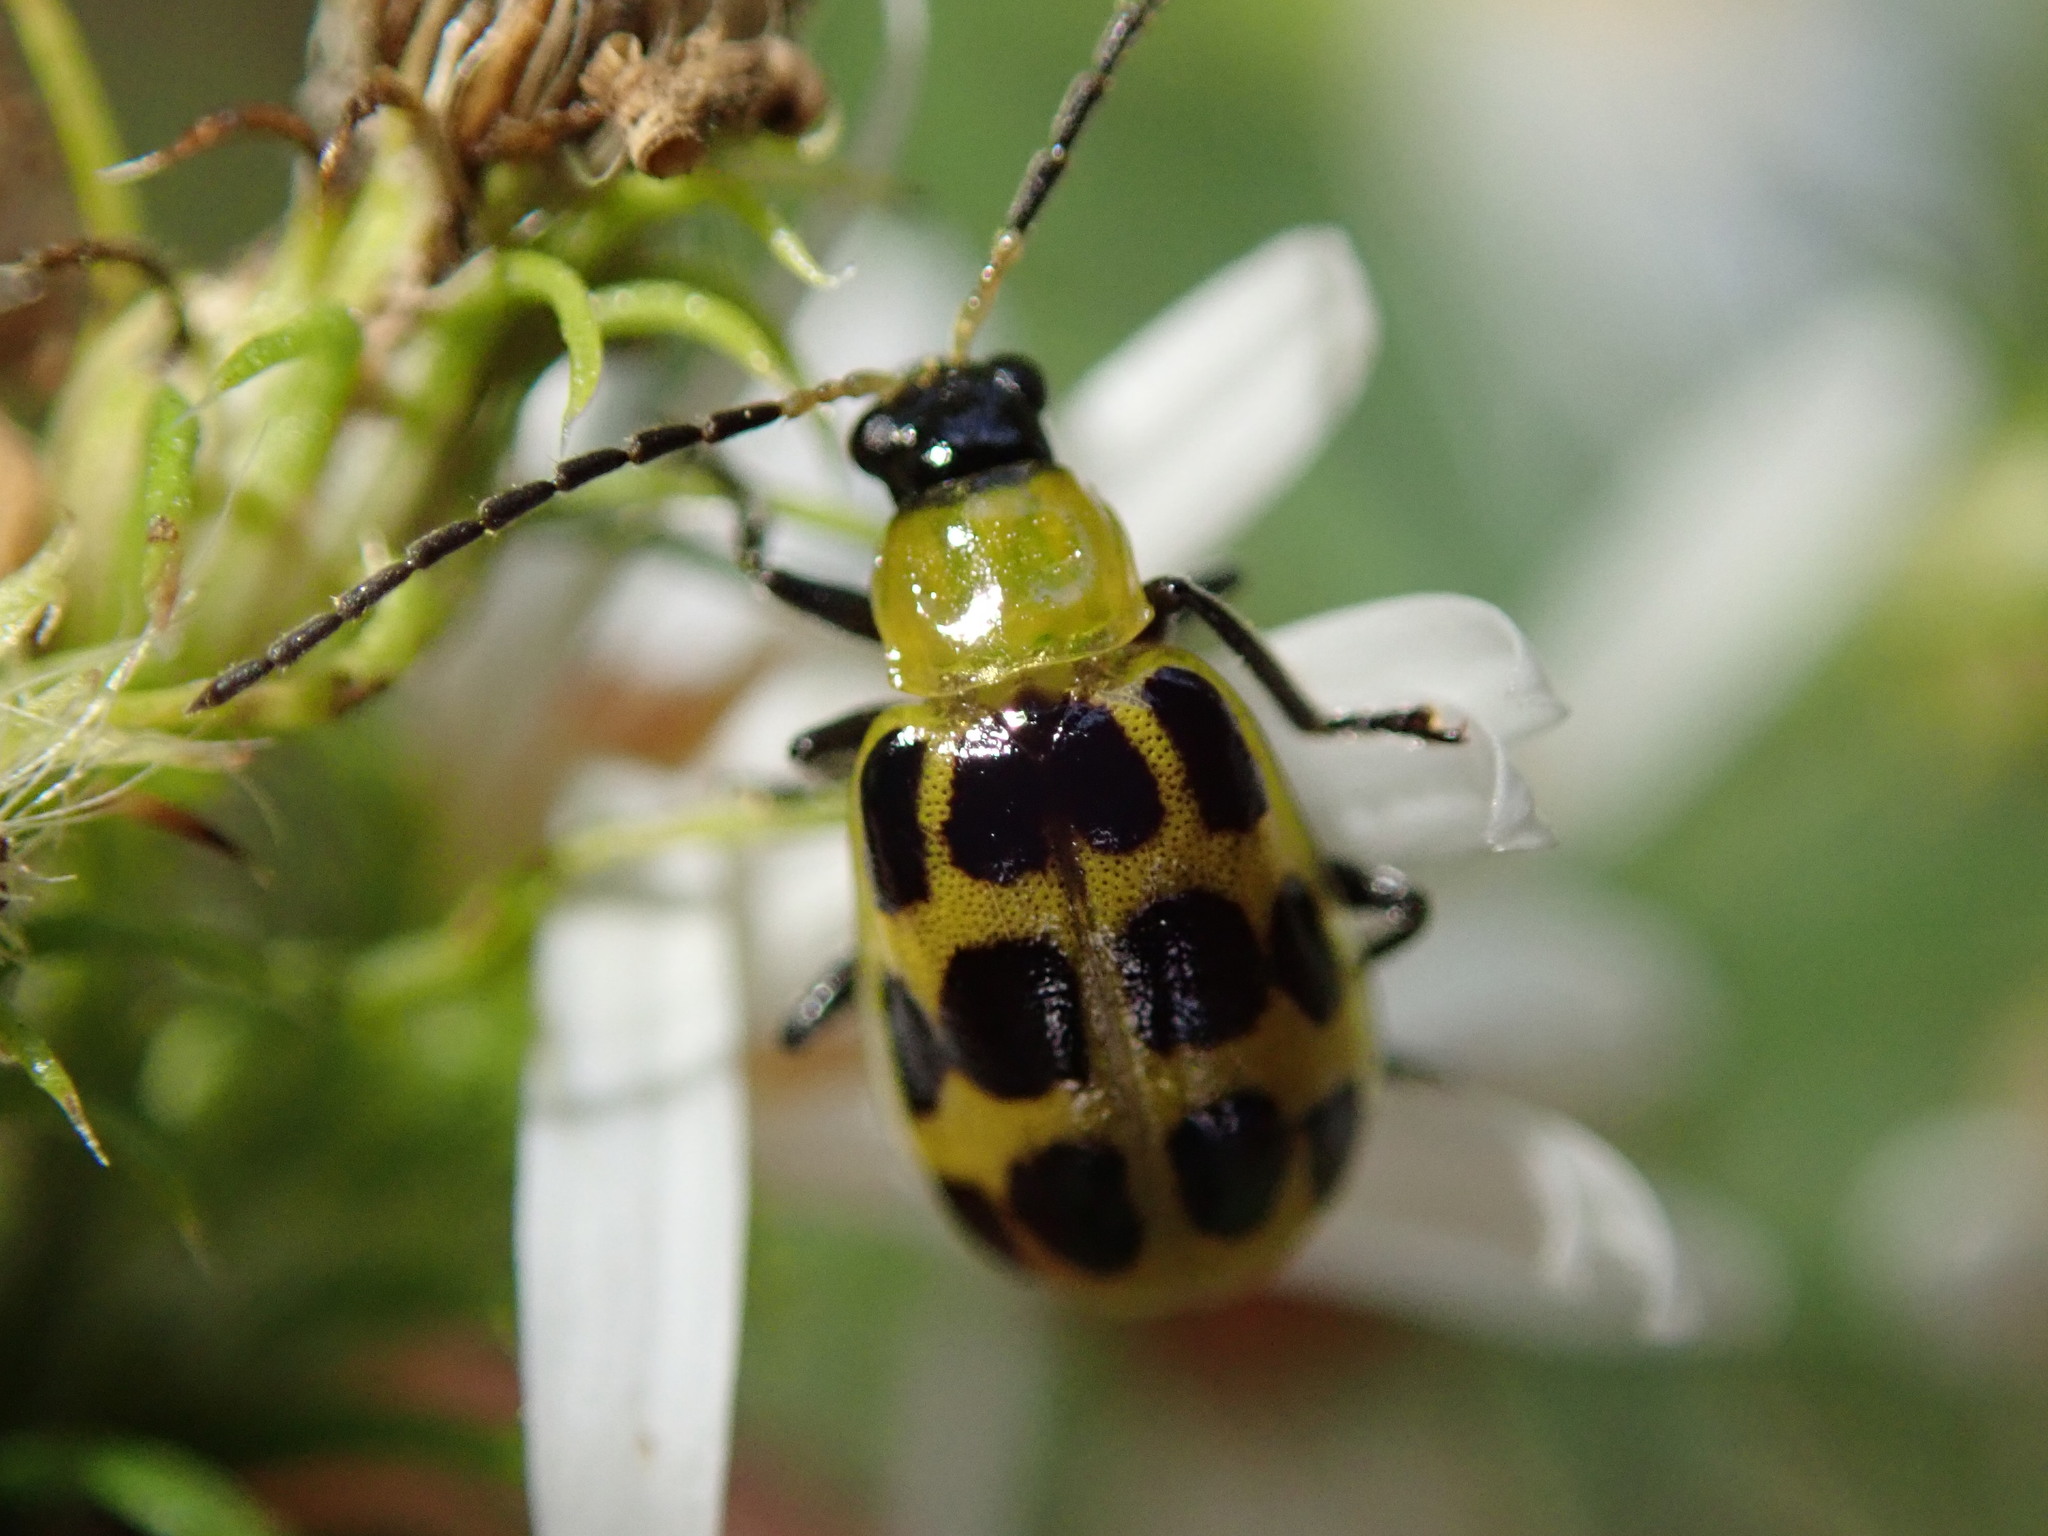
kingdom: Animalia
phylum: Arthropoda
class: Insecta
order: Coleoptera
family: Chrysomelidae
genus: Diabrotica
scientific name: Diabrotica undecimpunctata
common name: Spotted cucumber beetle
